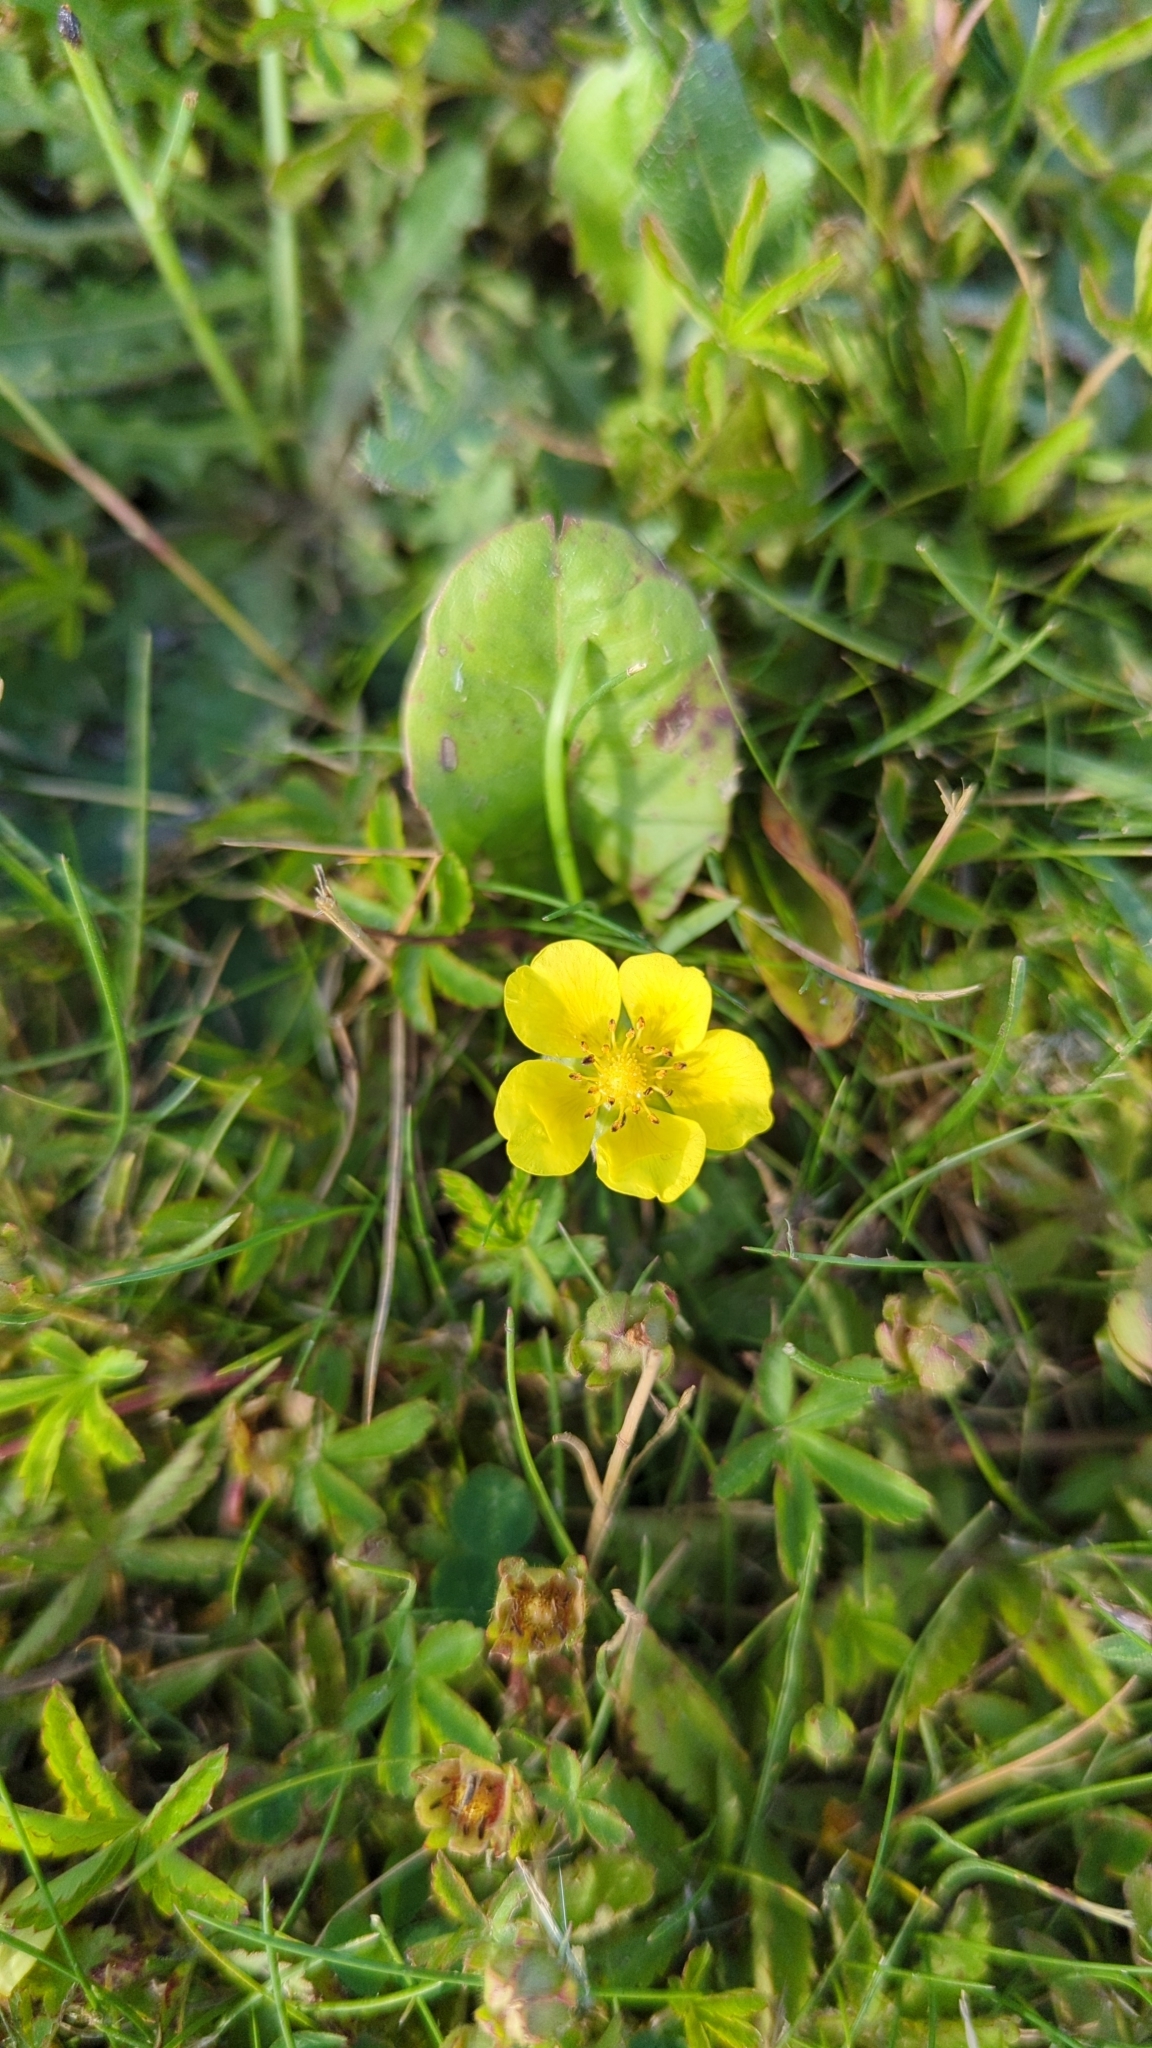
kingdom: Plantae
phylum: Tracheophyta
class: Magnoliopsida
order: Rosales
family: Rosaceae
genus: Potentilla
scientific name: Potentilla reptans
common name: Creeping cinquefoil
